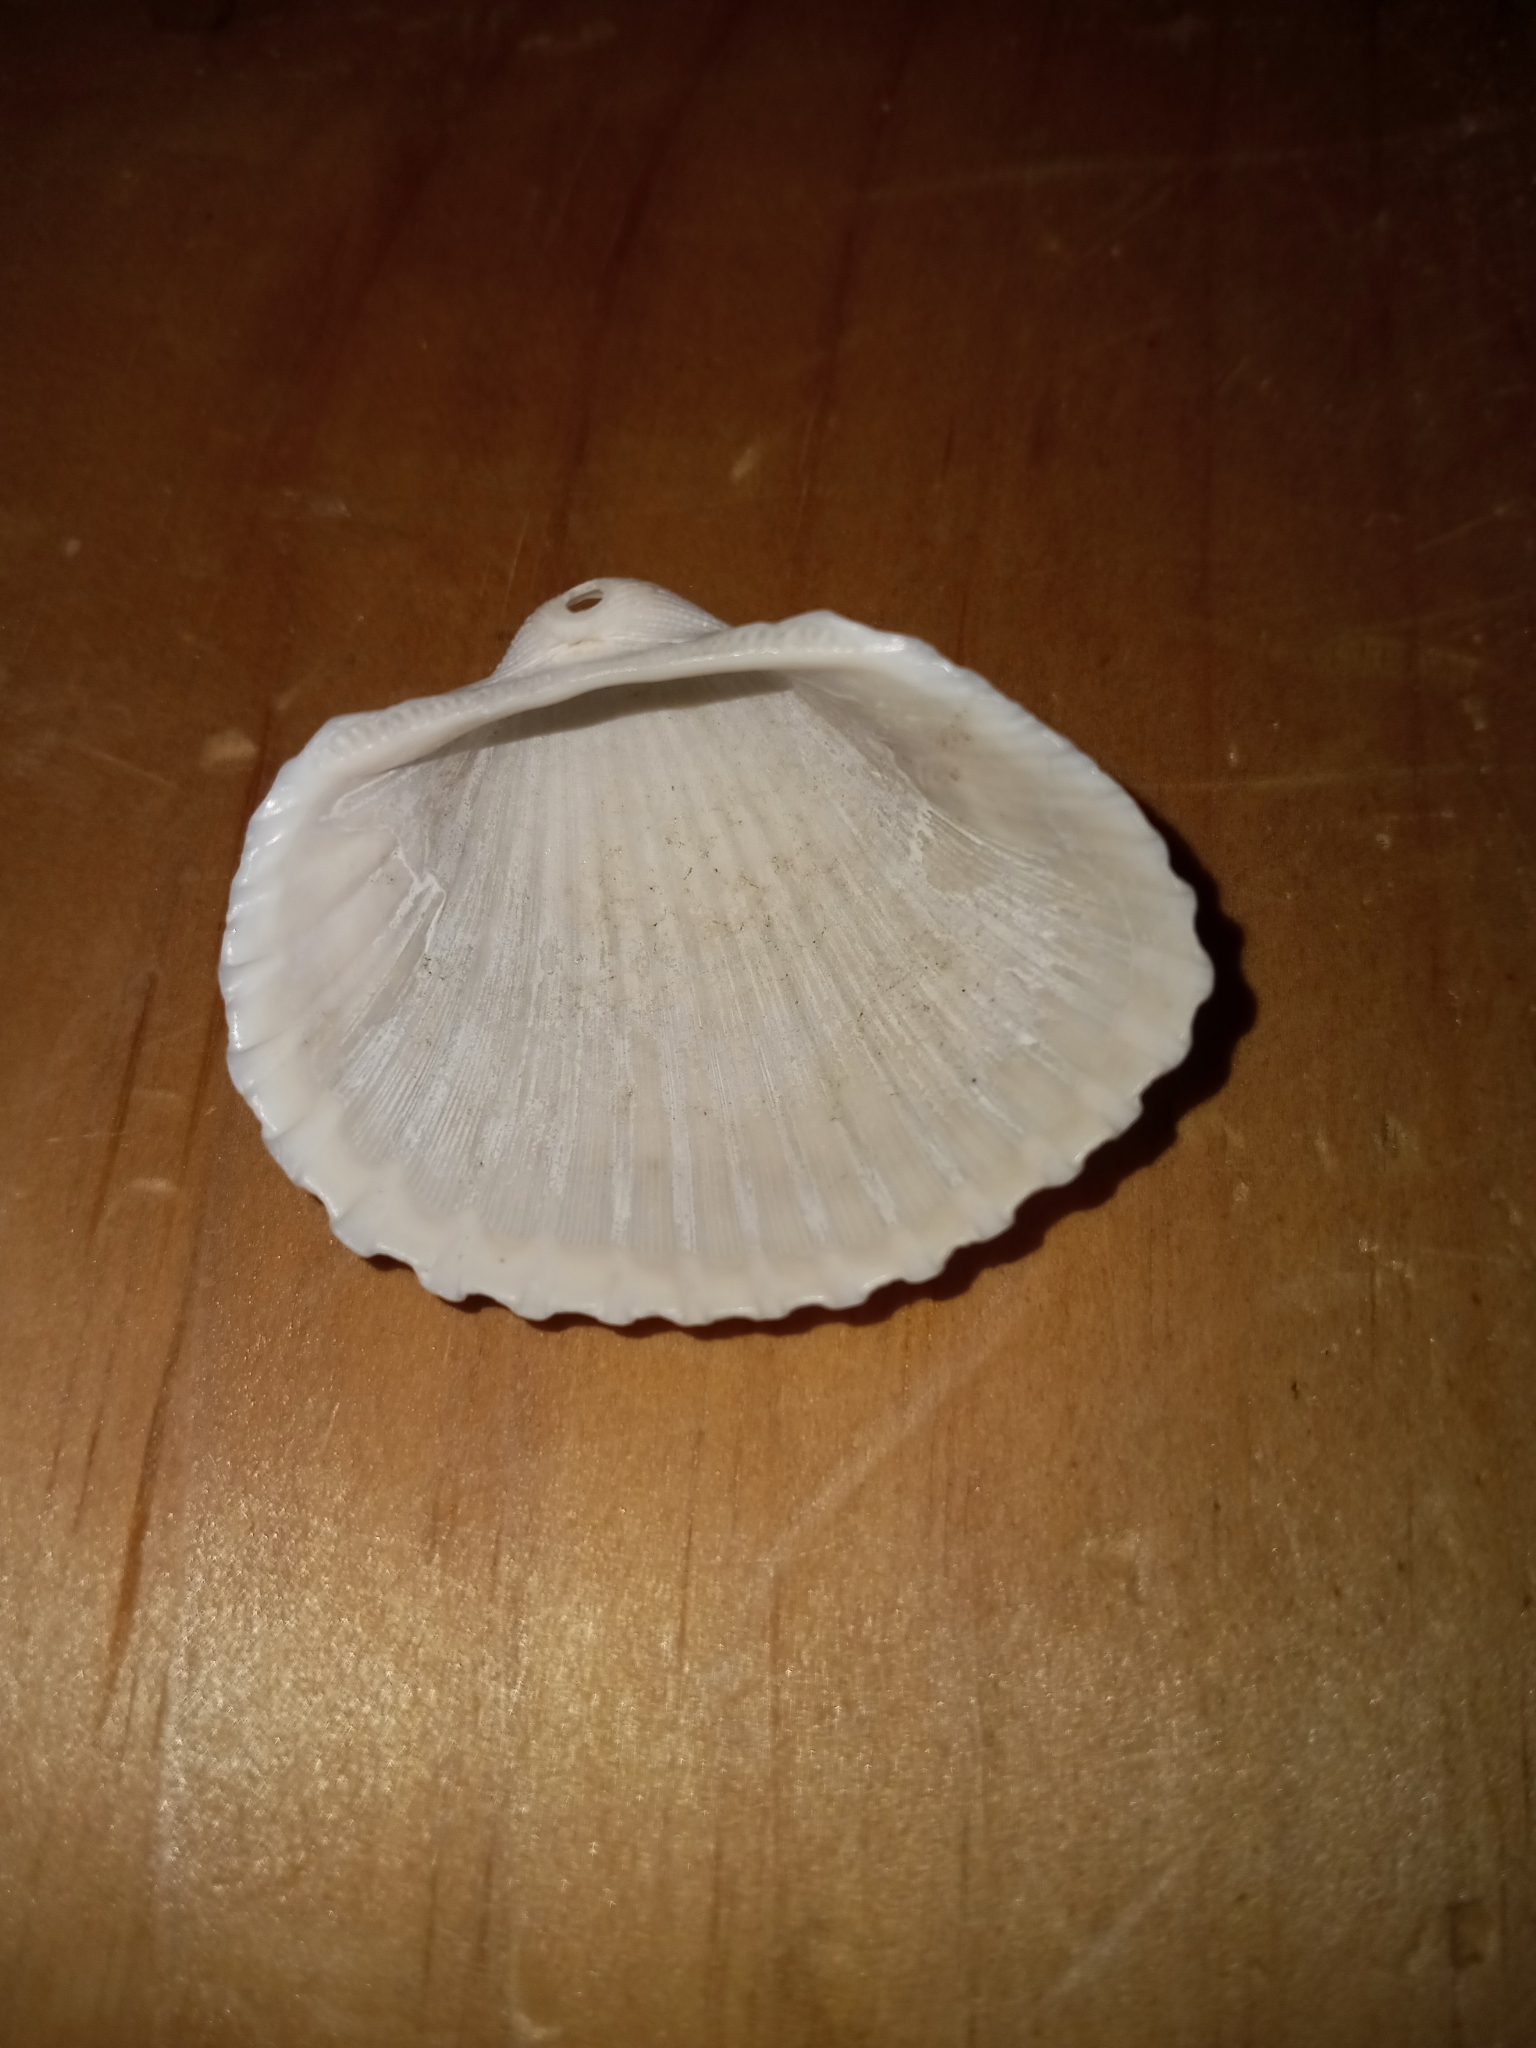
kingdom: Animalia
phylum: Mollusca
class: Bivalvia
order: Arcida
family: Arcidae
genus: Anadara
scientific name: Anadara brasiliana
